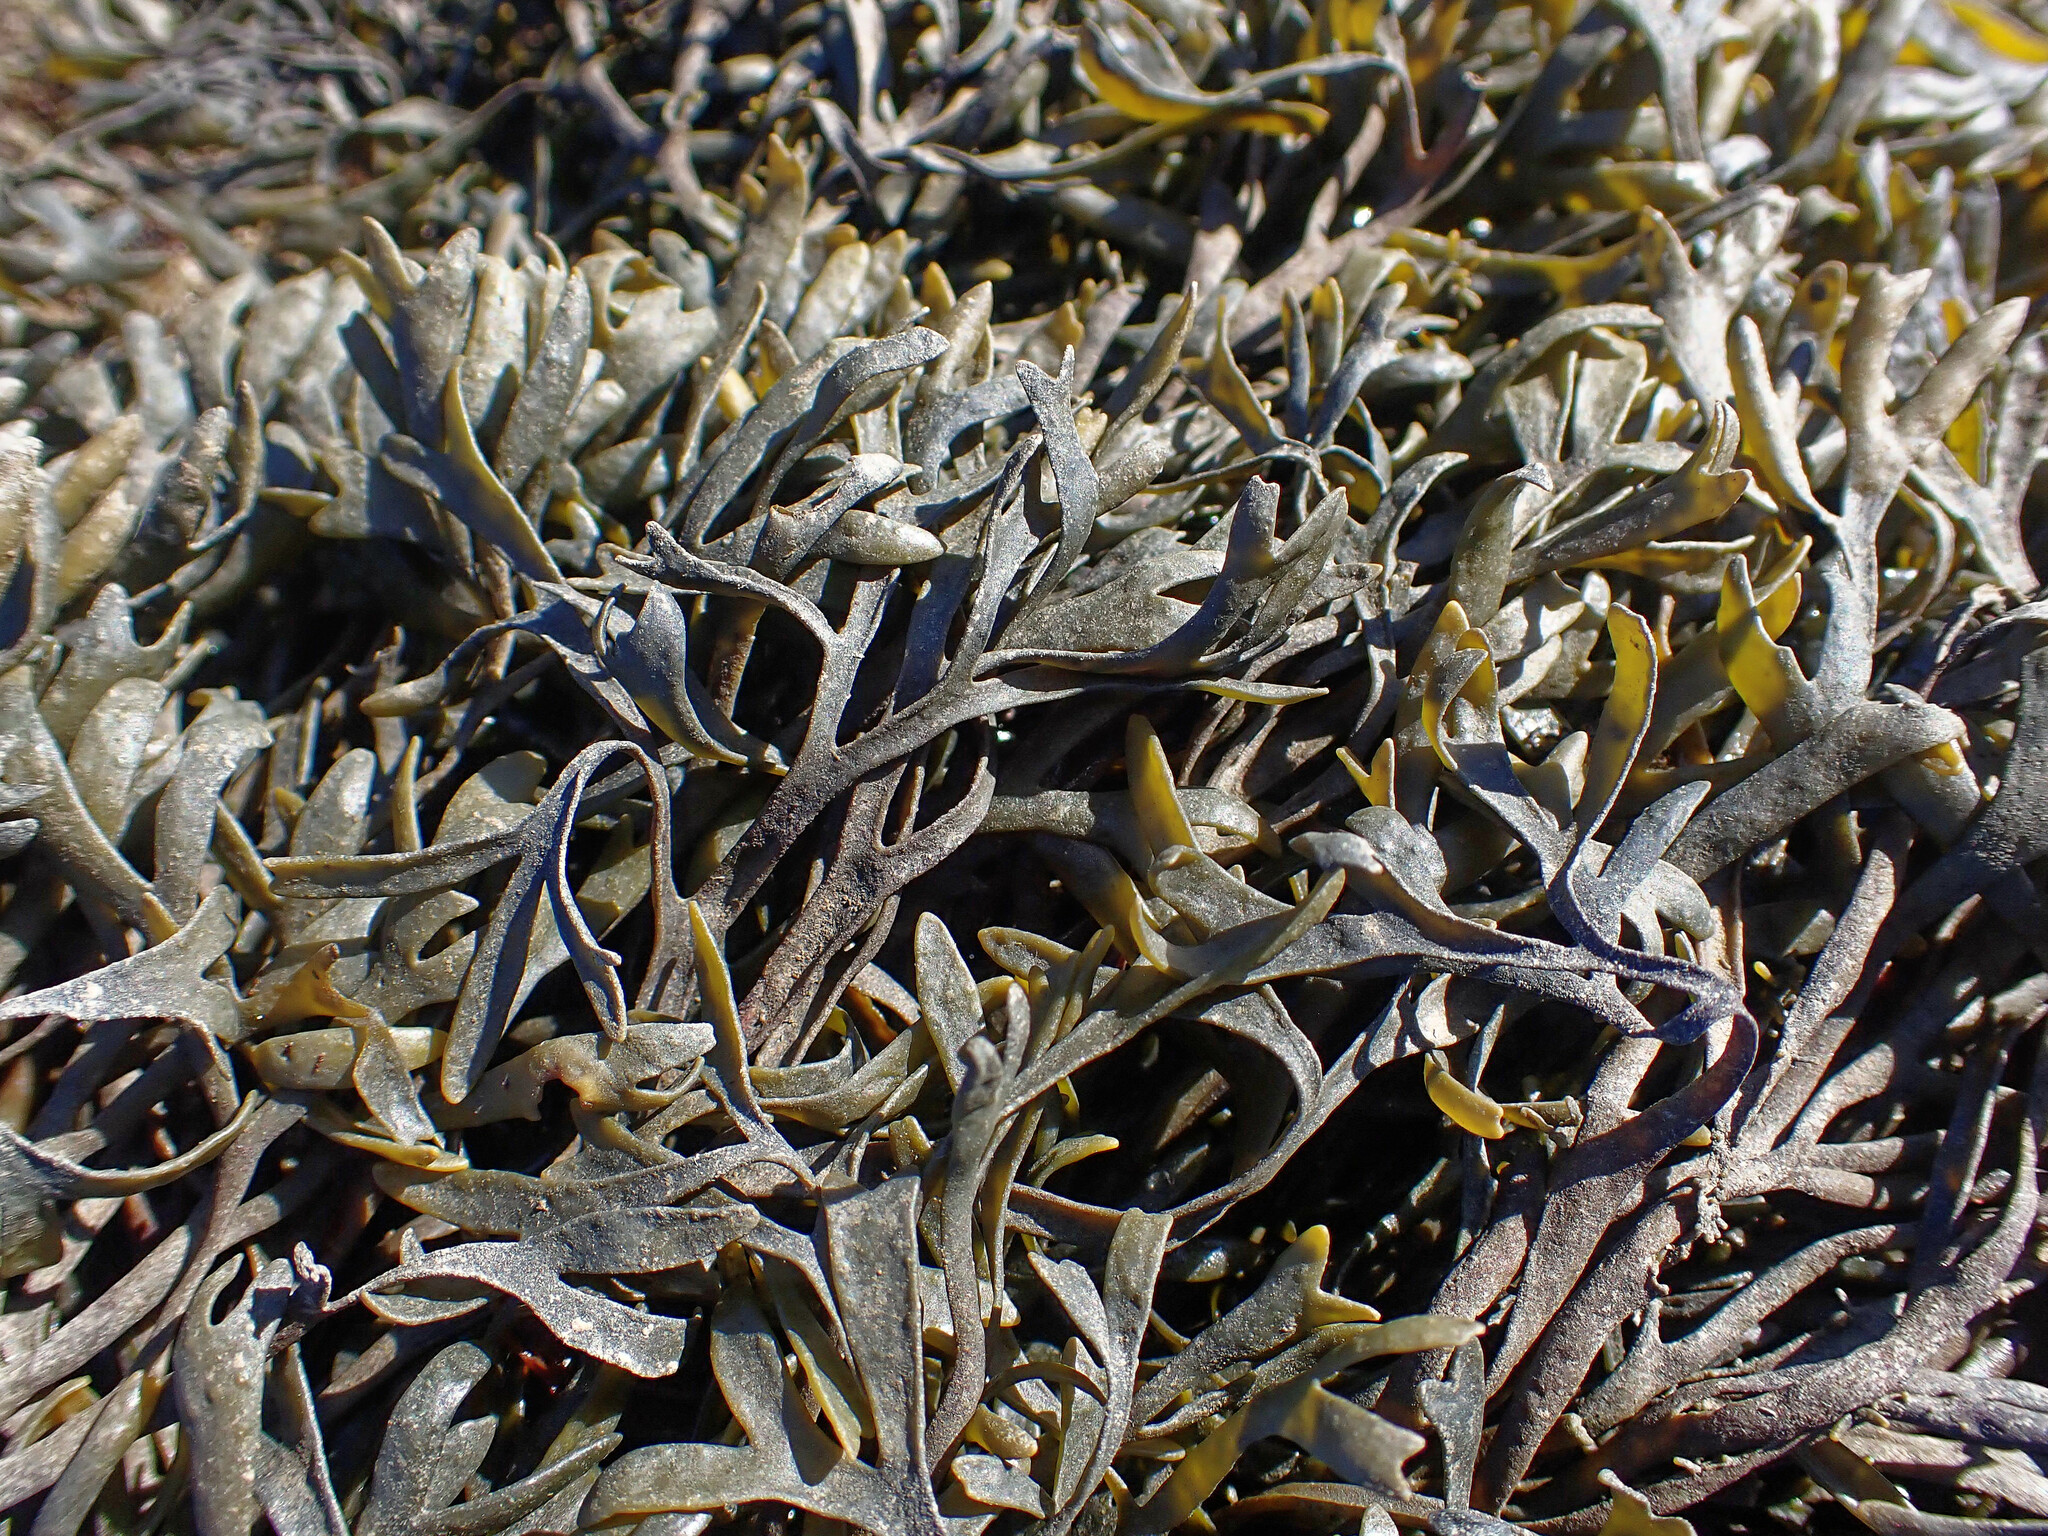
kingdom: Chromista
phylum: Ochrophyta
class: Phaeophyceae
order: Fucales
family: Fucaceae
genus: Pelvetia
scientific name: Pelvetia canaliculata
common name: Channelled wrack
